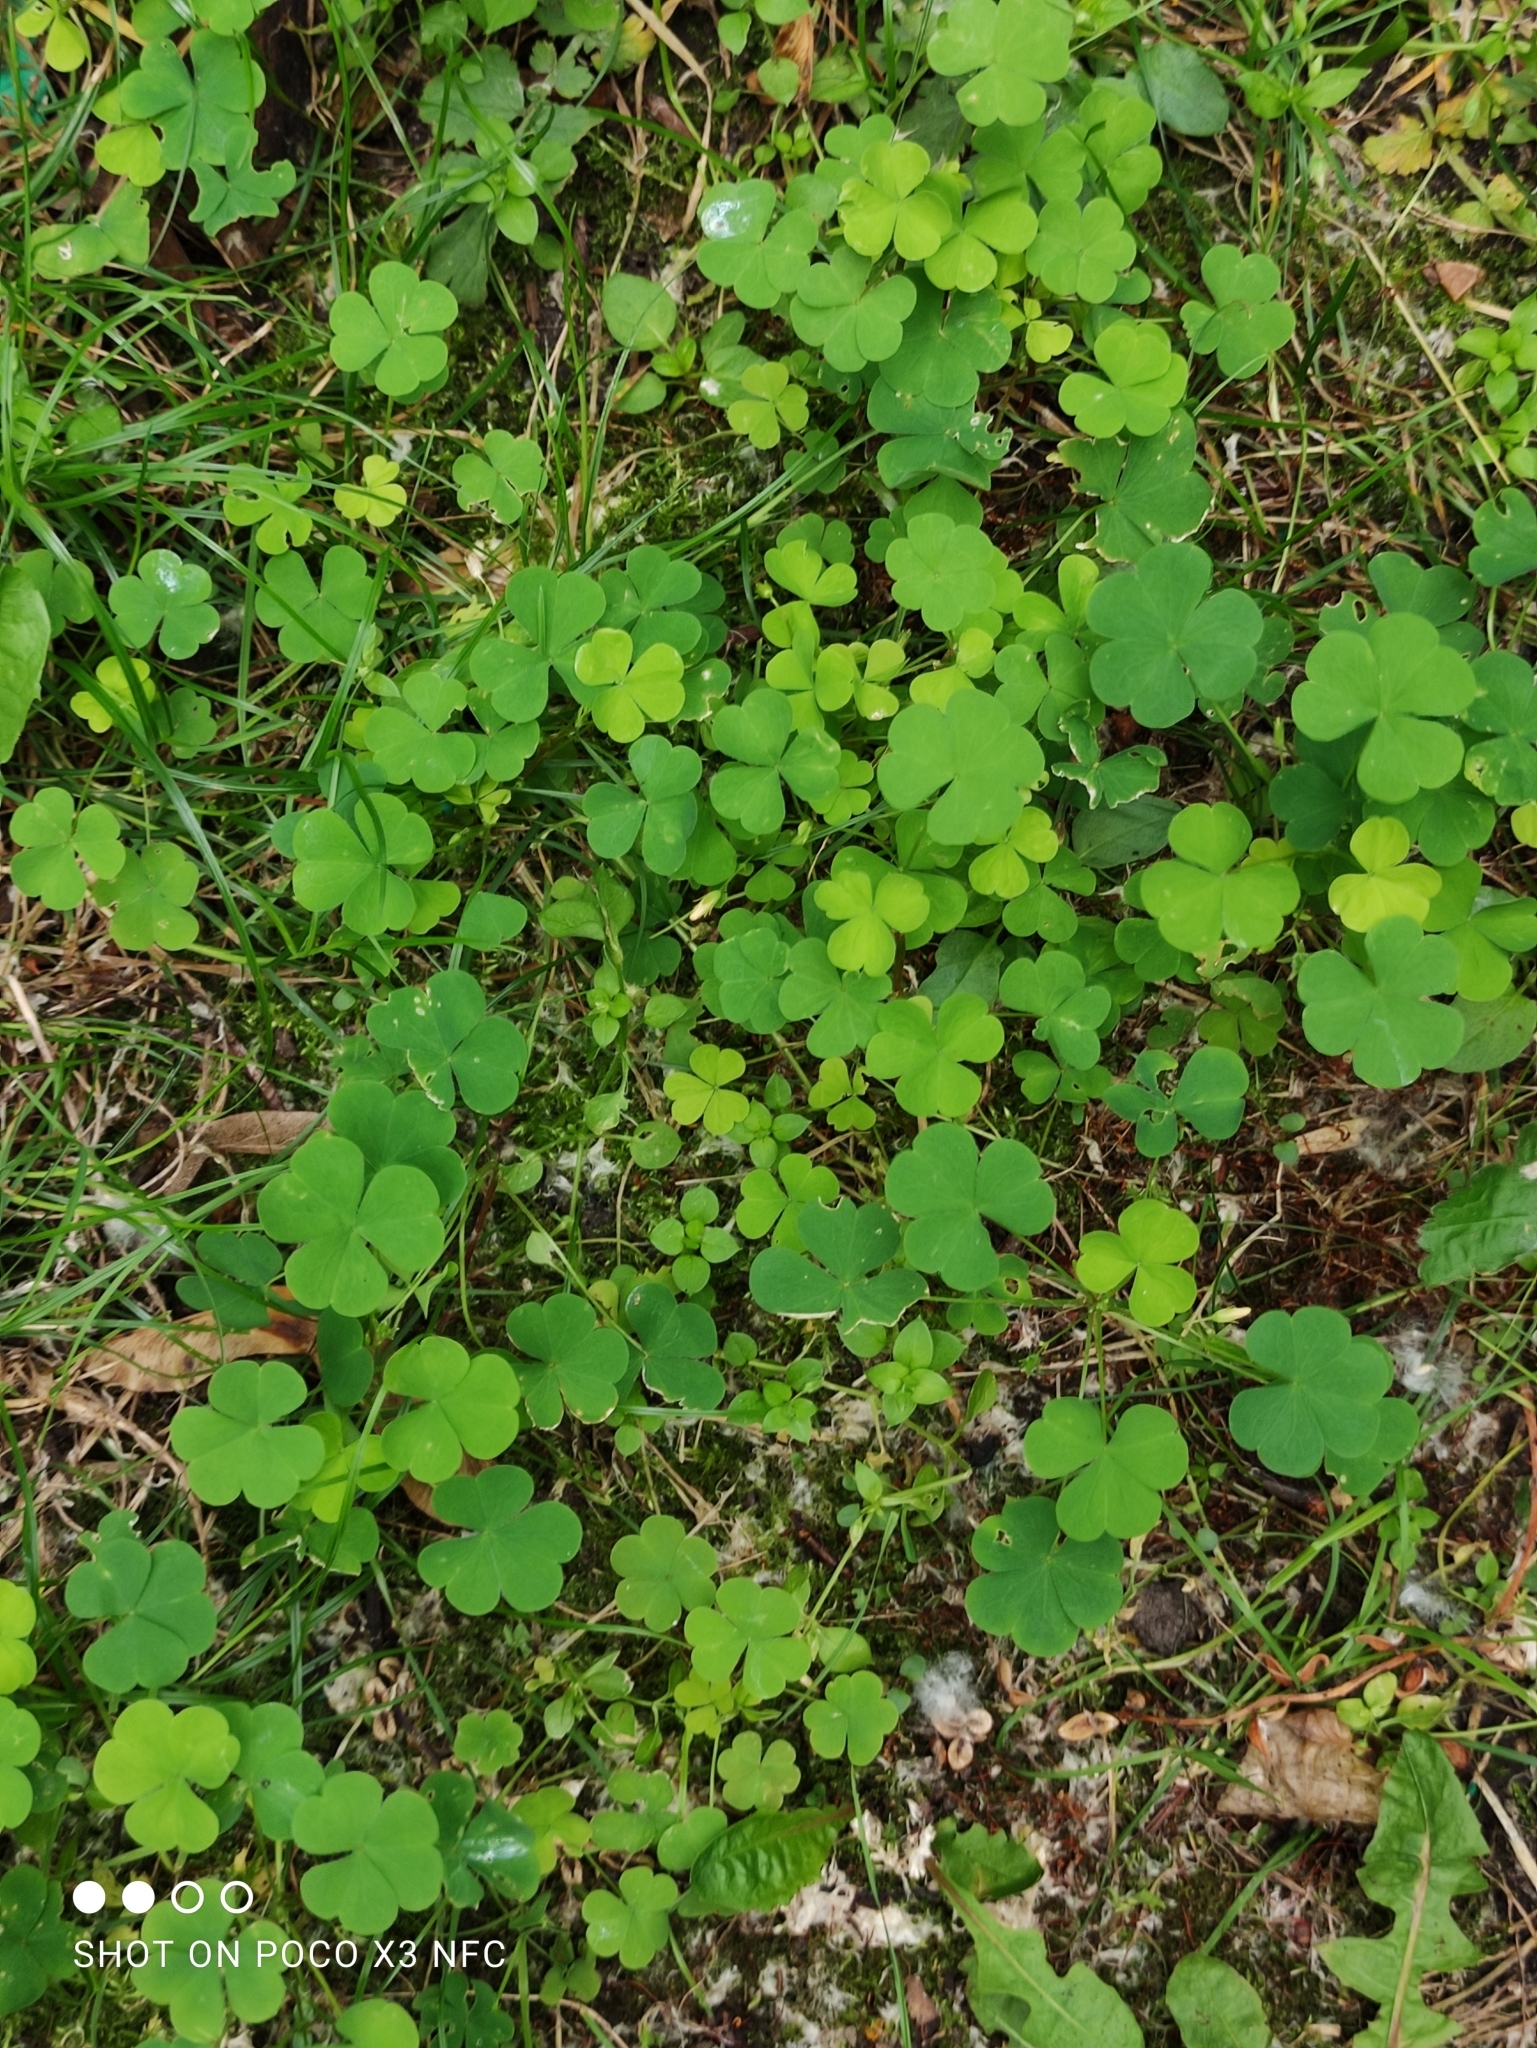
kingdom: Plantae
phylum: Tracheophyta
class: Magnoliopsida
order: Oxalidales
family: Oxalidaceae
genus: Oxalis
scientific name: Oxalis acetosella
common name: Wood-sorrel
